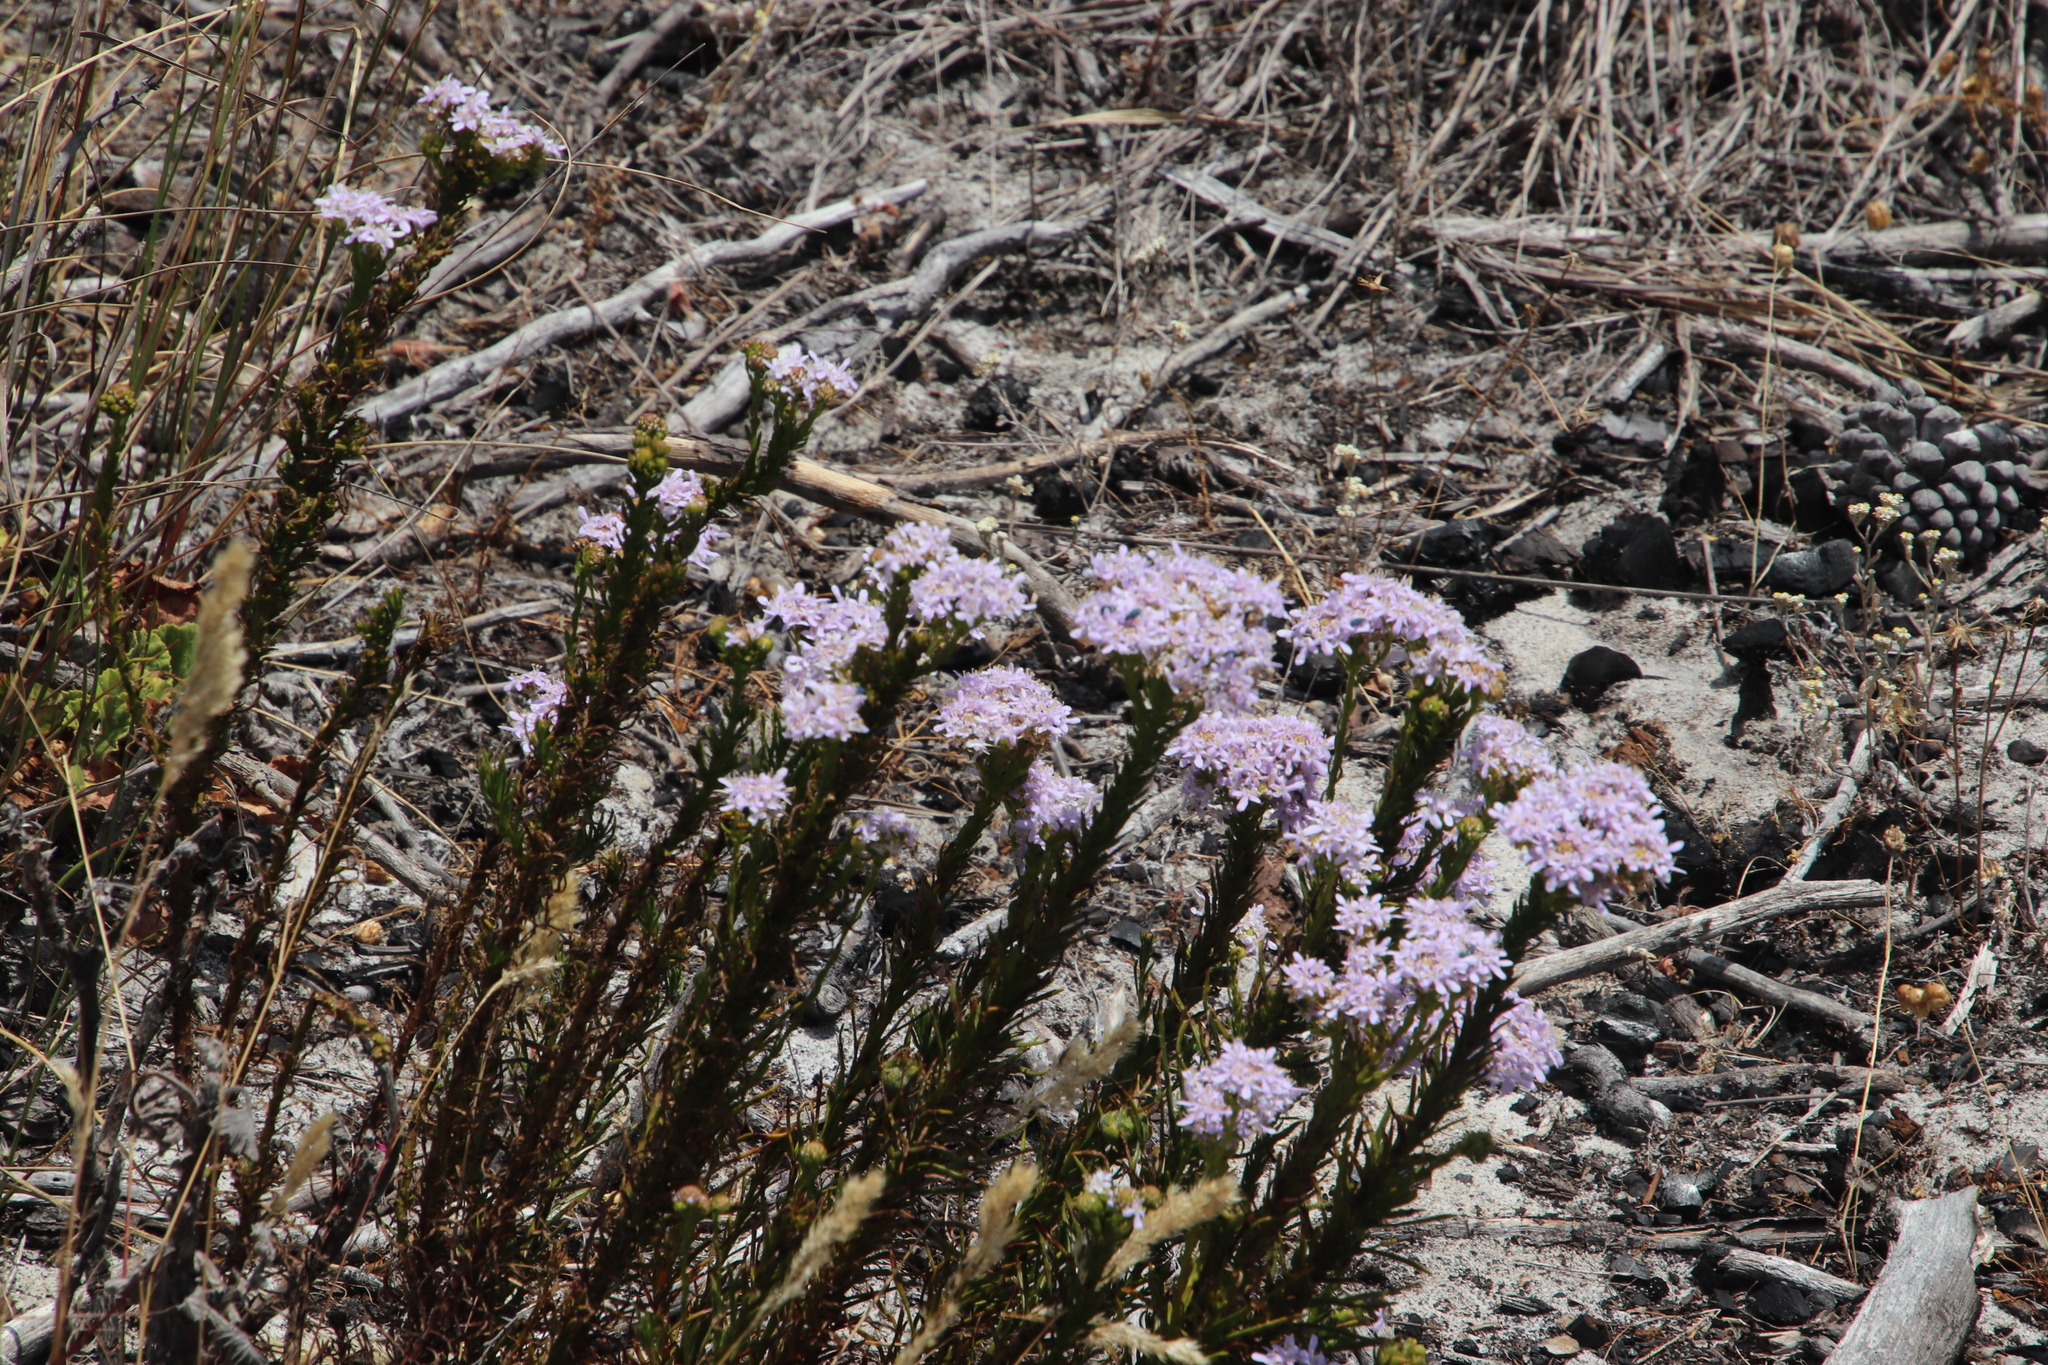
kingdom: Plantae
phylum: Tracheophyta
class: Magnoliopsida
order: Lamiales
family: Scrophulariaceae
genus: Pseudoselago
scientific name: Pseudoselago spuria
